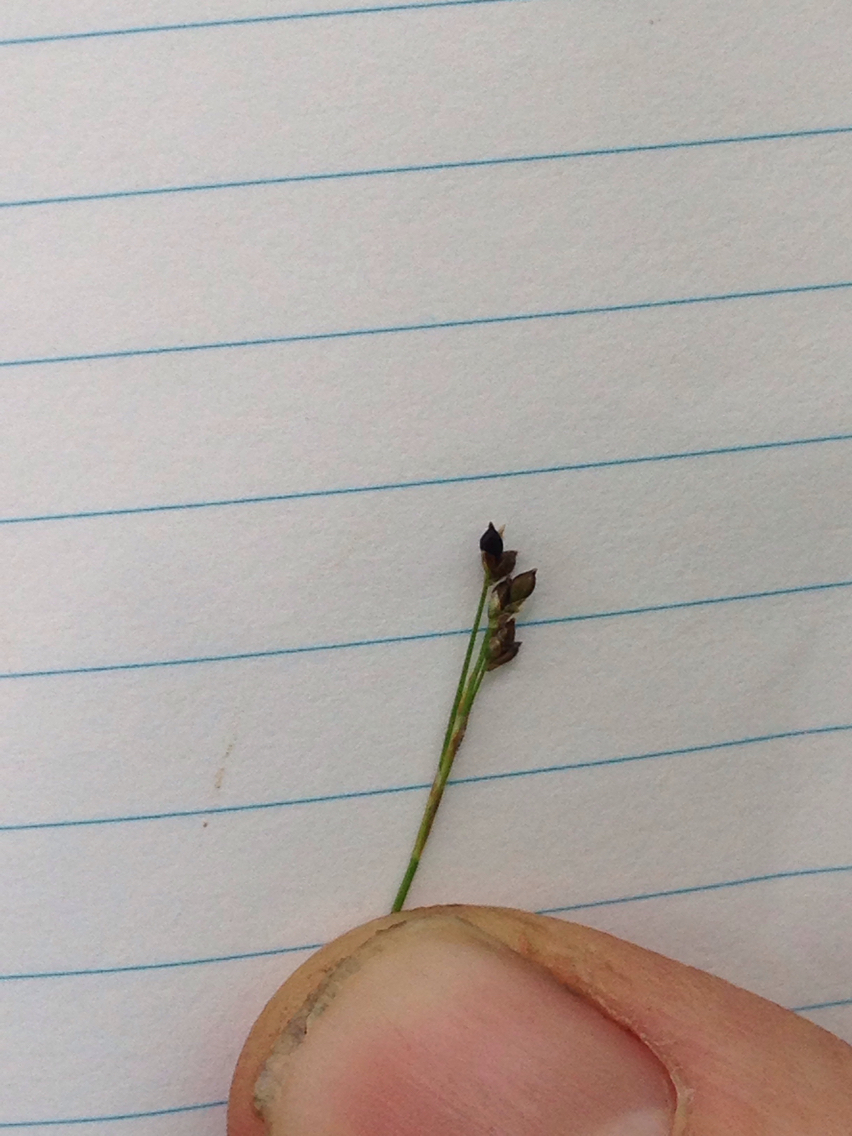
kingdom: Plantae
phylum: Tracheophyta
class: Liliopsida
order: Poales
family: Cyperaceae
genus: Carex
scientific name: Carex eburnea
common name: Bristle-leaved sedge
